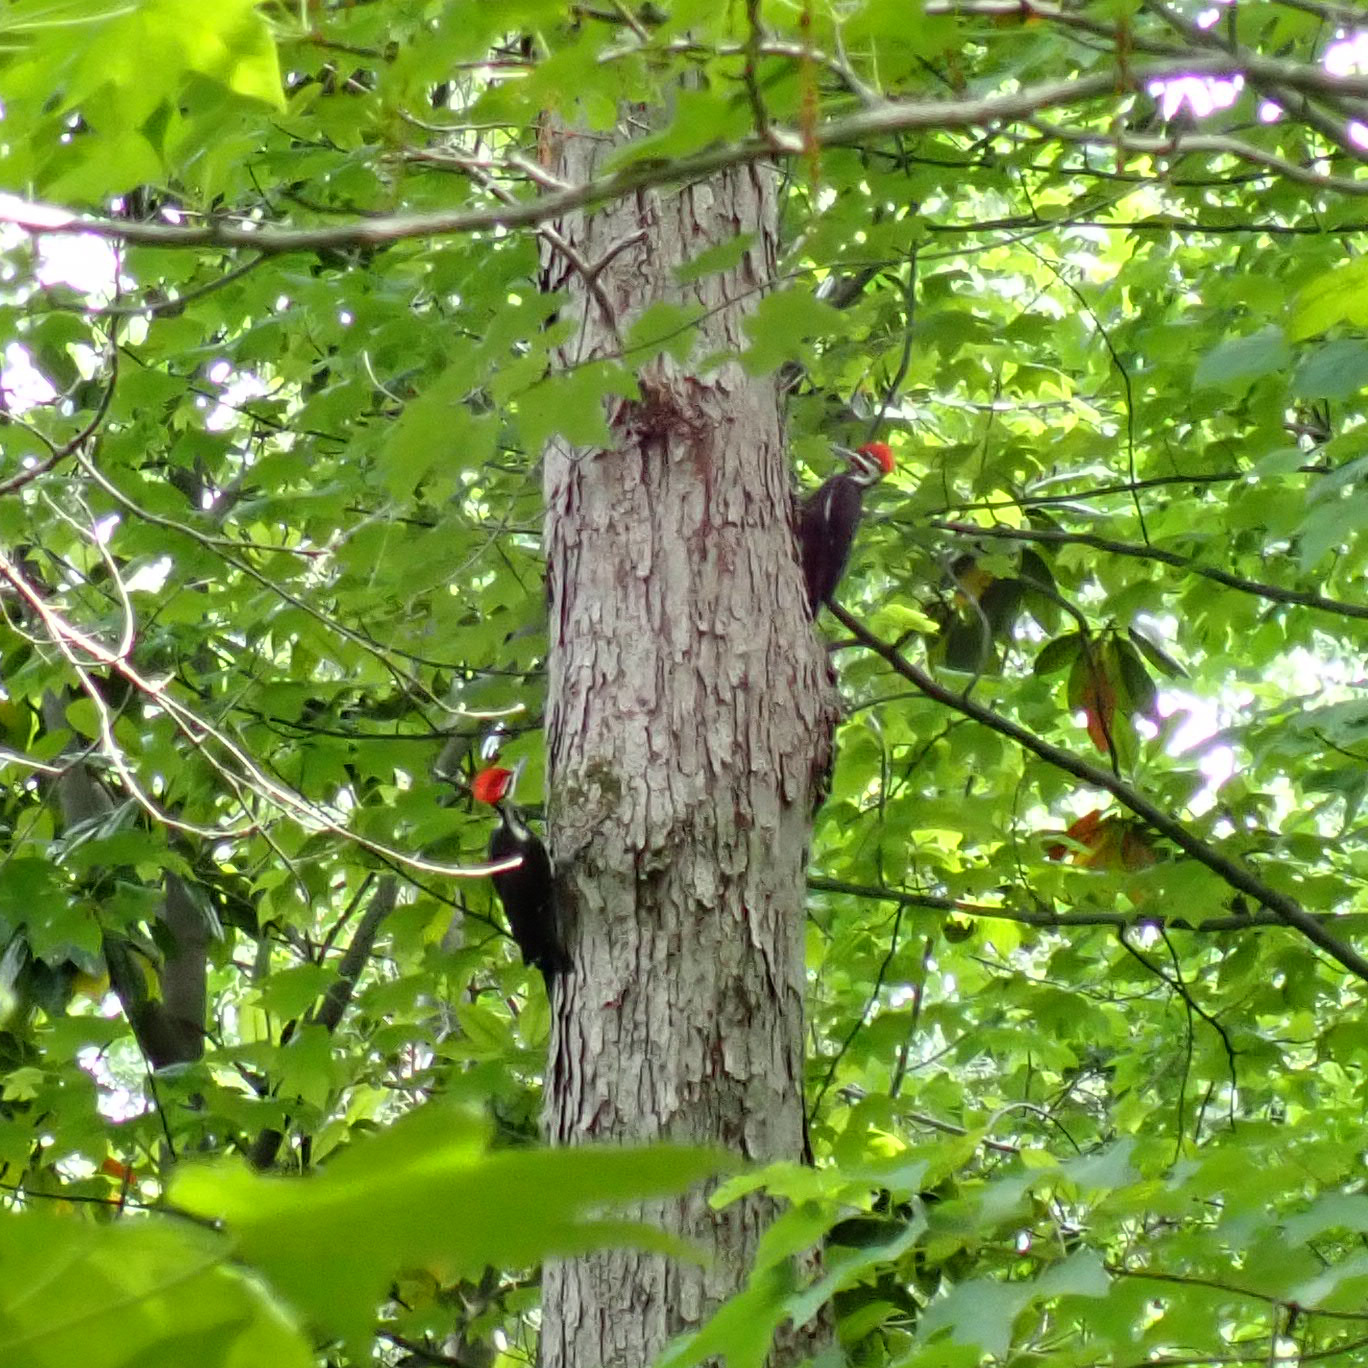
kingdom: Animalia
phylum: Chordata
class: Aves
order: Piciformes
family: Picidae
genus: Dryocopus
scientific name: Dryocopus pileatus
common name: Pileated woodpecker
